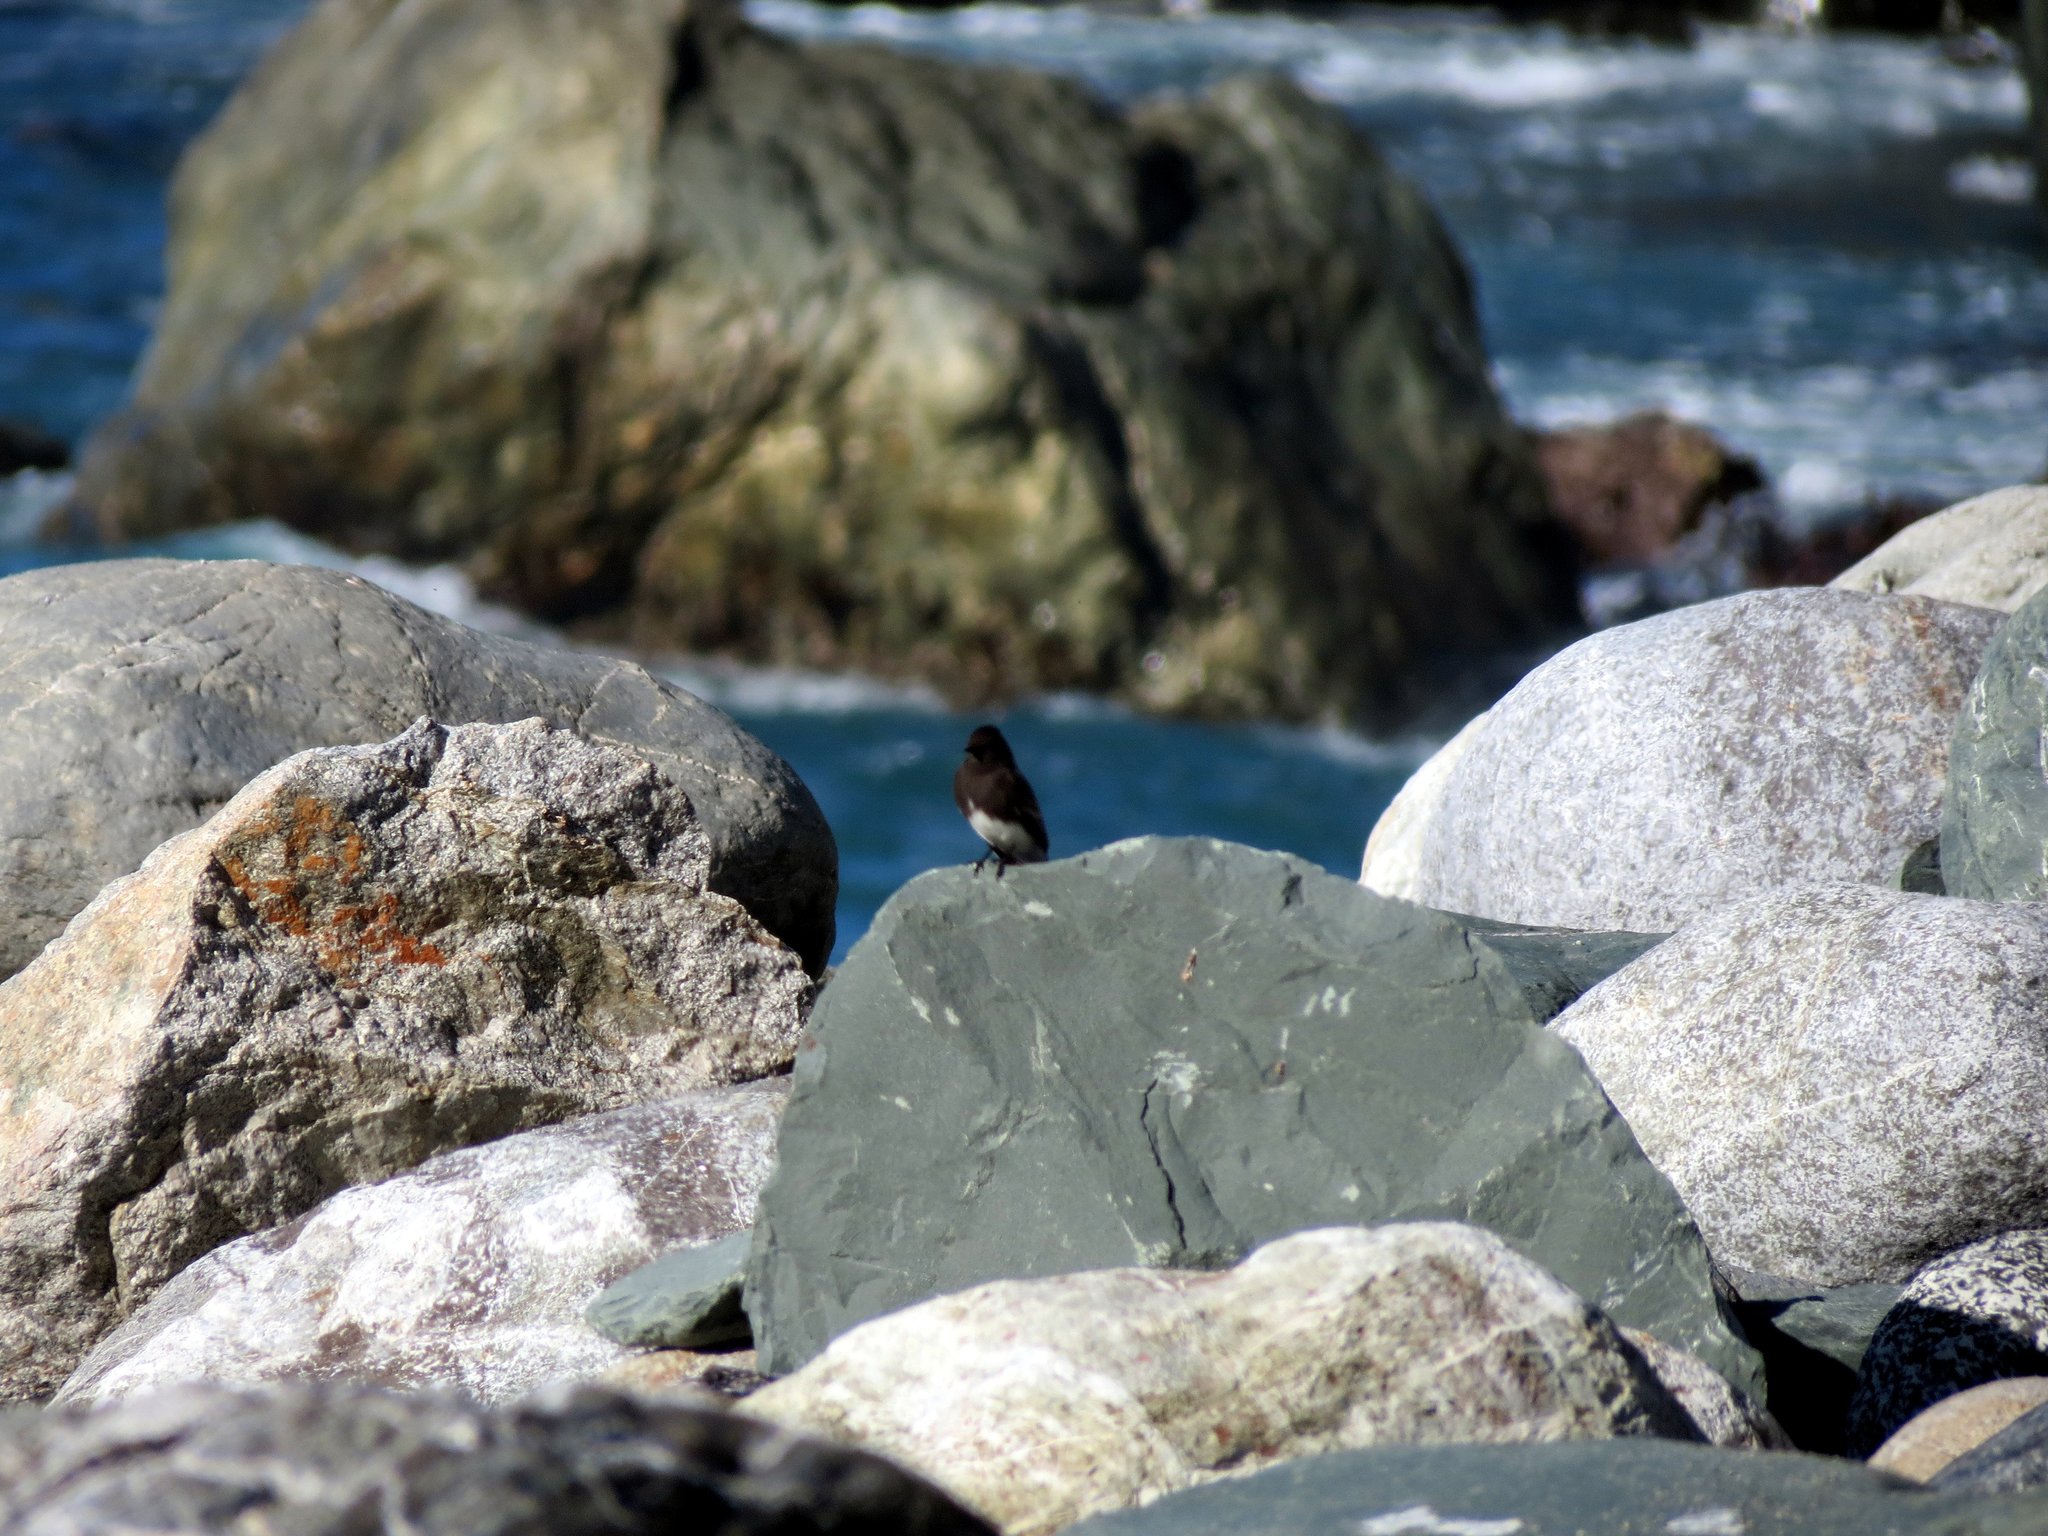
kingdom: Animalia
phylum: Chordata
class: Aves
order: Passeriformes
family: Tyrannidae
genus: Sayornis
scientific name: Sayornis nigricans
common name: Black phoebe
